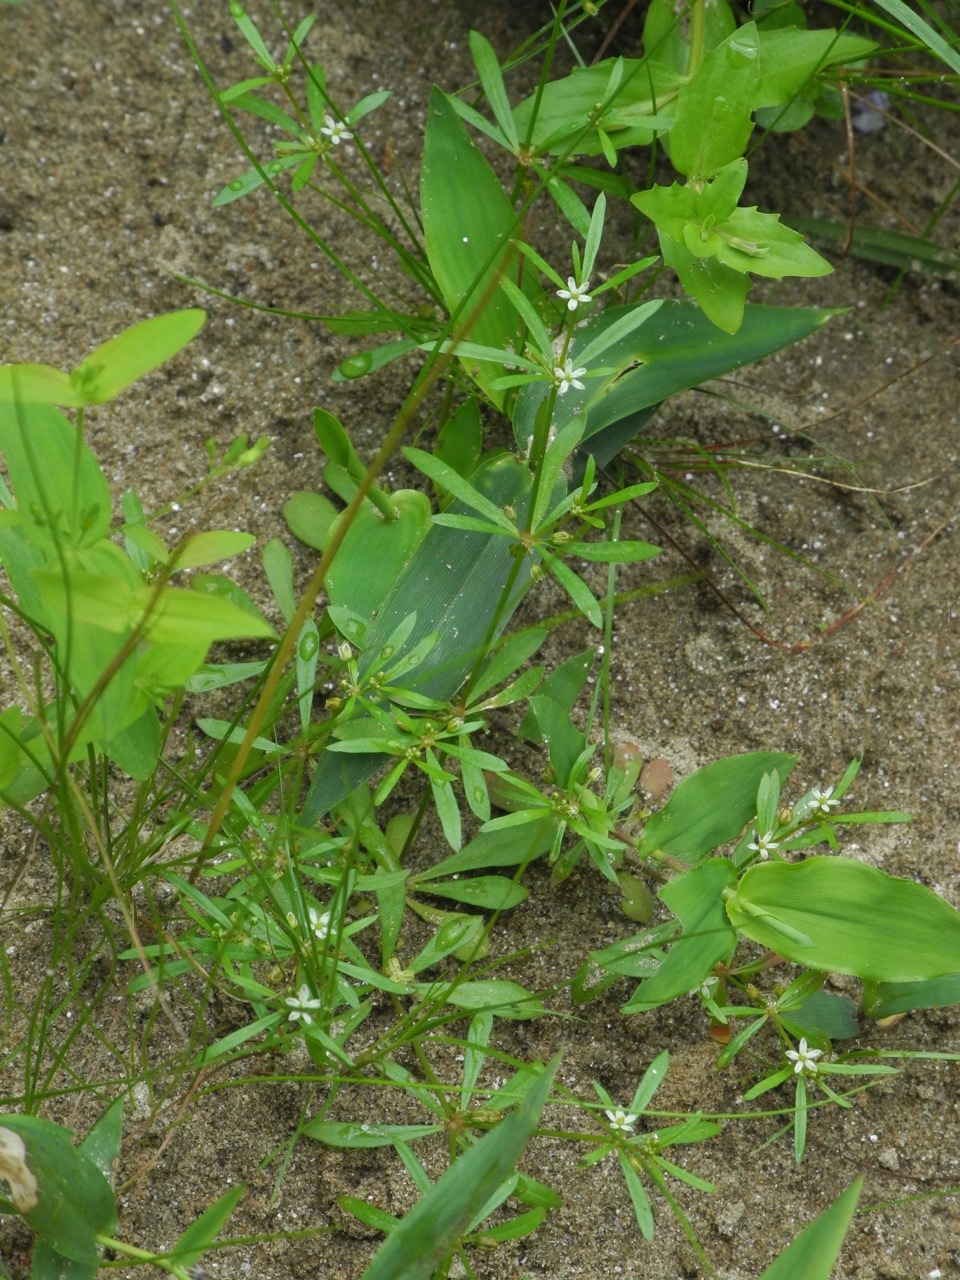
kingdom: Plantae
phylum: Tracheophyta
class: Magnoliopsida
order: Caryophyllales
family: Molluginaceae
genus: Mollugo
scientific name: Mollugo verticillata
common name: Green carpetweed
